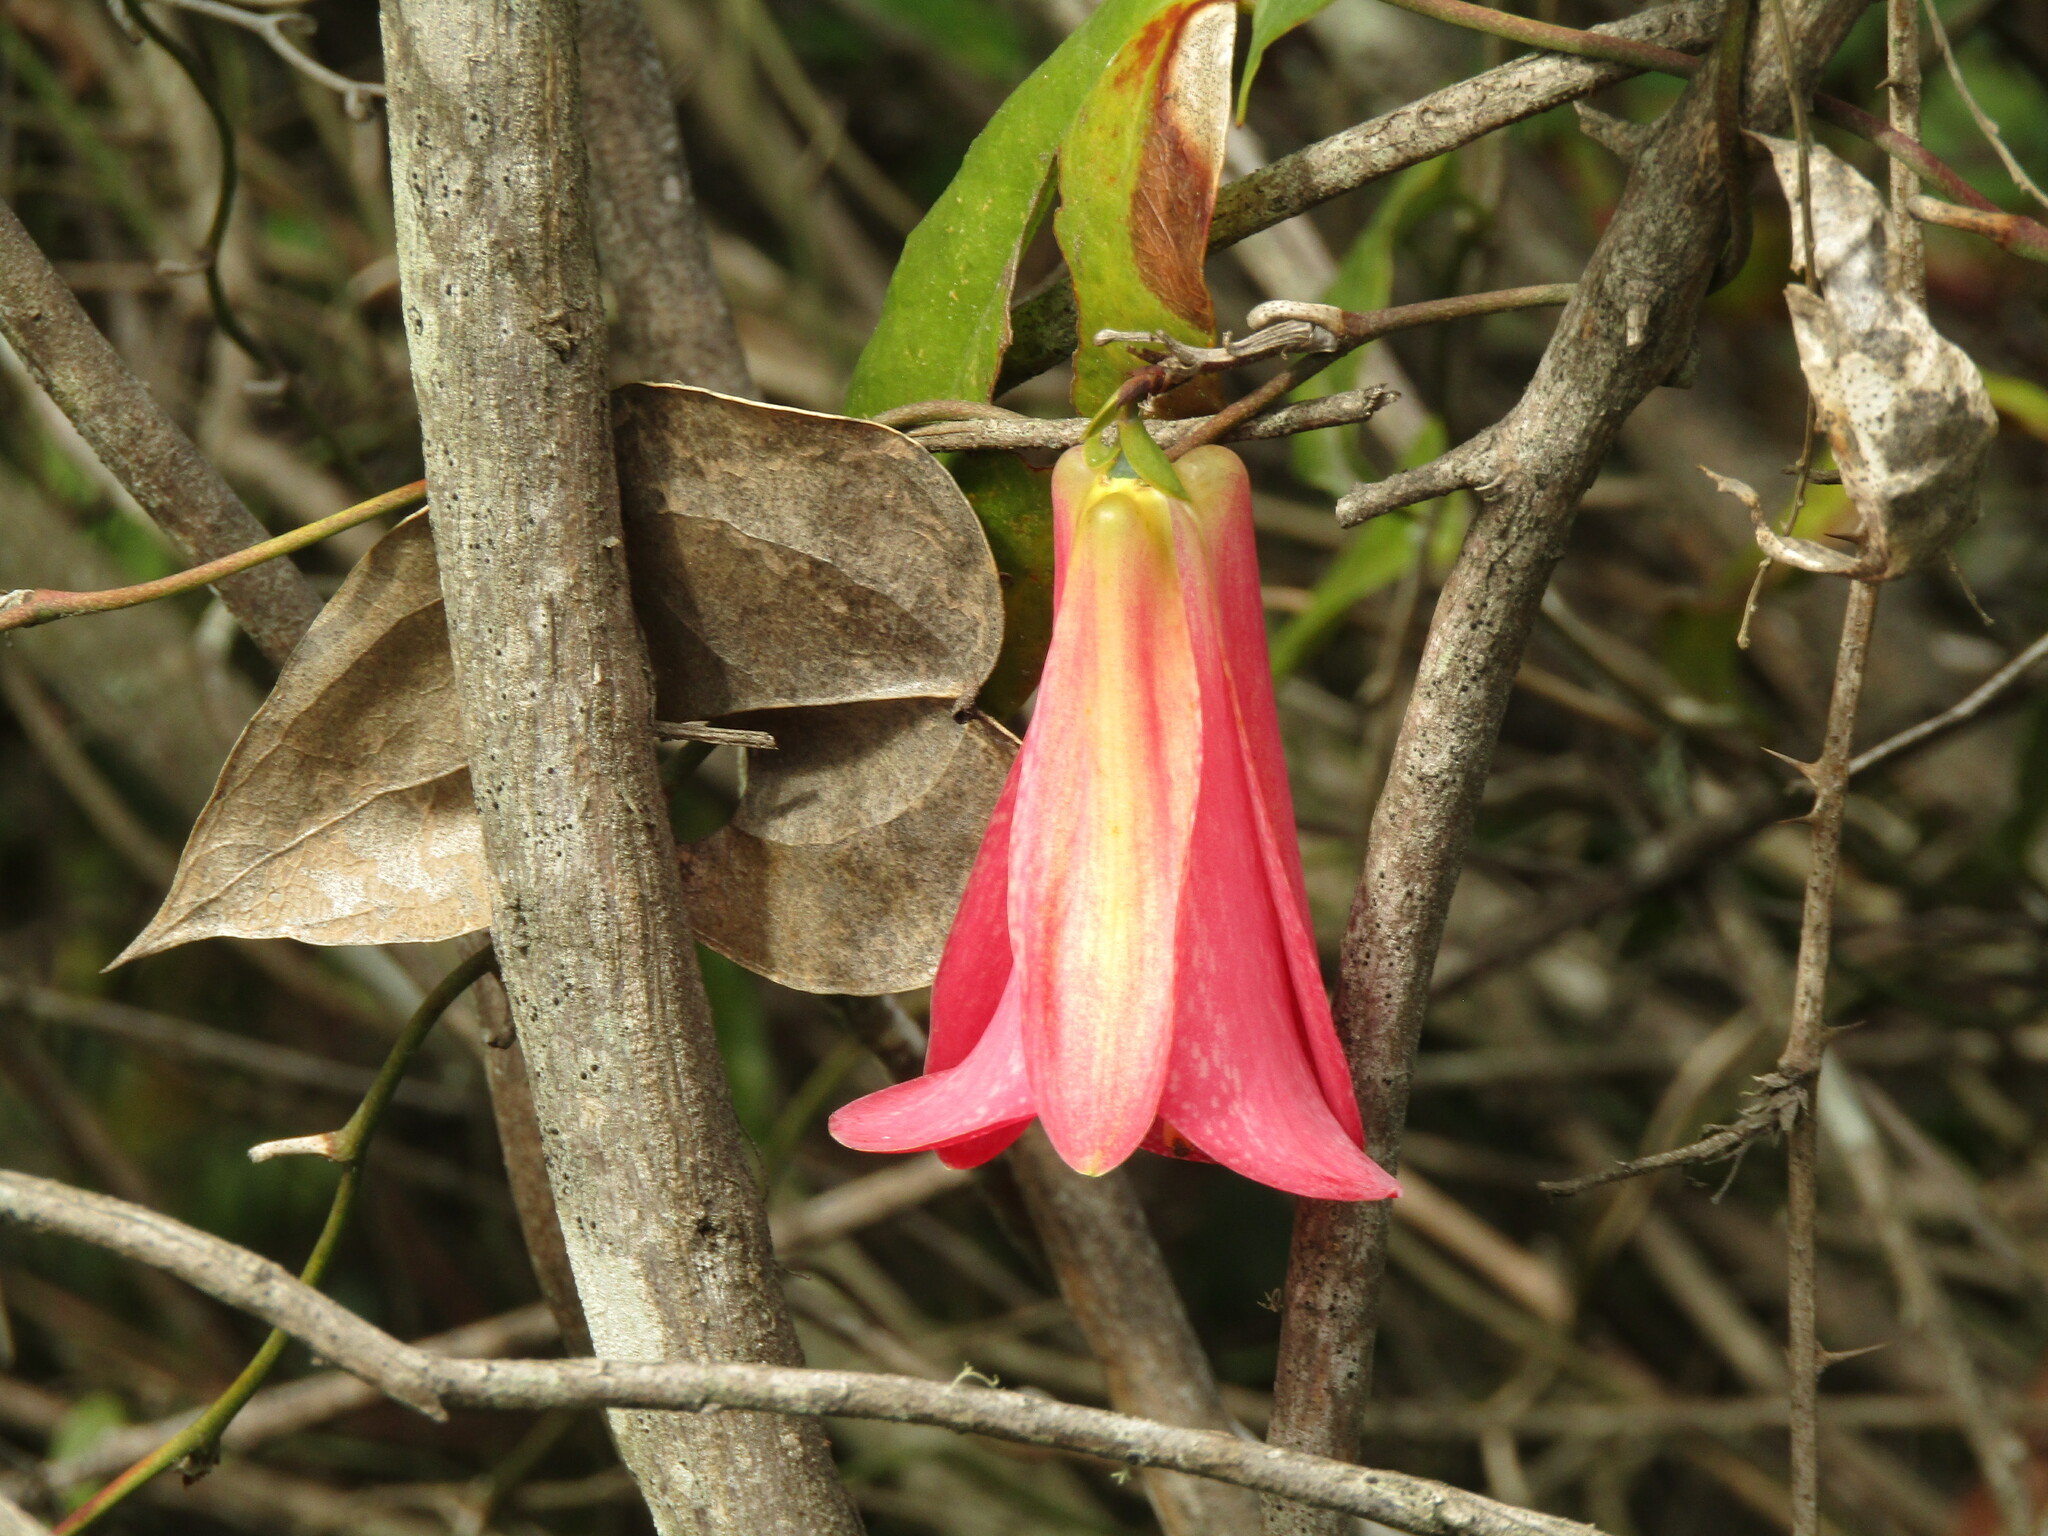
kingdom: Plantae
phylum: Tracheophyta
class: Liliopsida
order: Liliales
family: Philesiaceae
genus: Lapageria
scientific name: Lapageria rosea
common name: Chilean-bellflower
